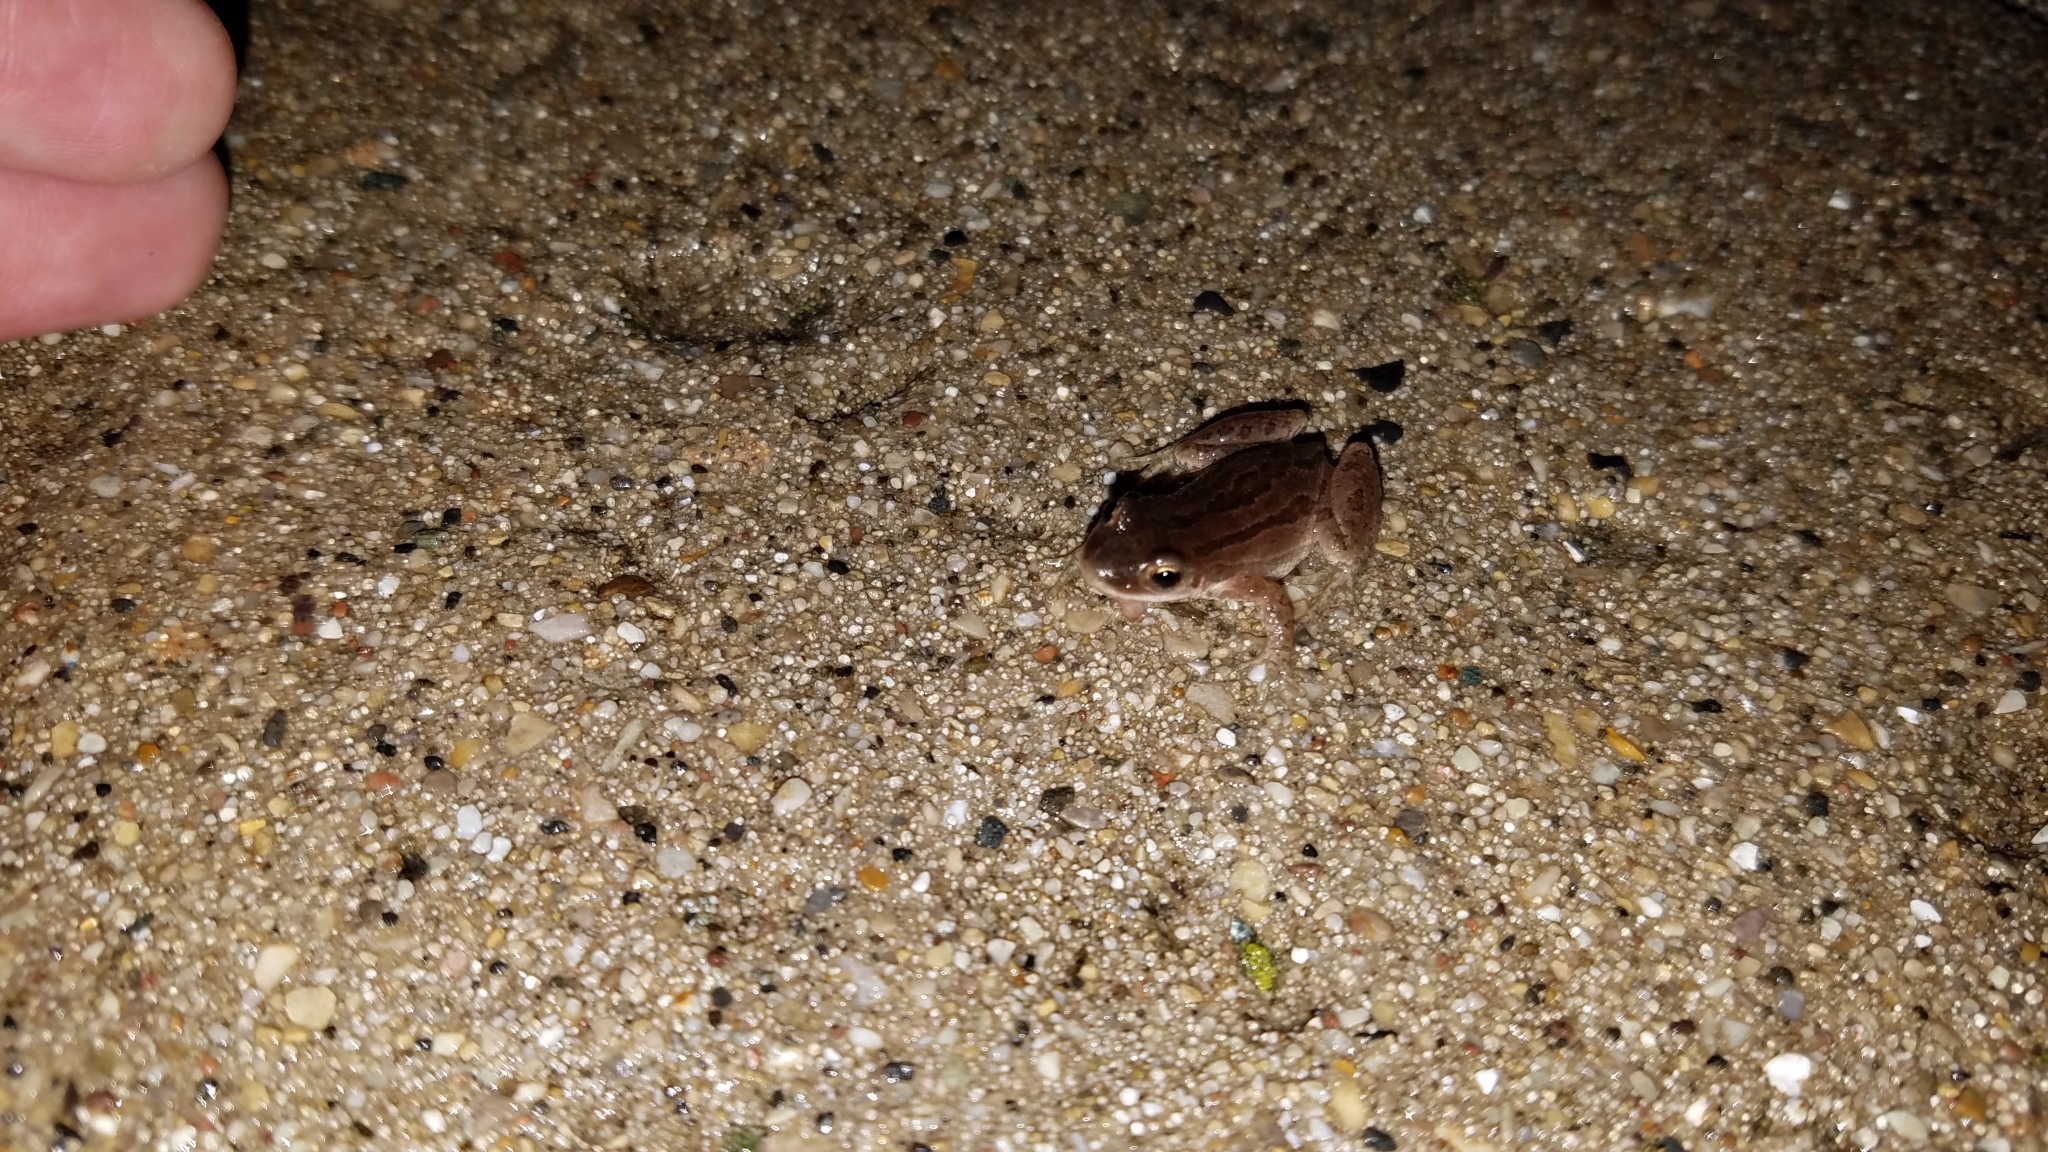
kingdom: Animalia
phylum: Chordata
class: Amphibia
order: Anura
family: Hylidae
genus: Pseudacris
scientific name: Pseudacris maculata
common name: Boreal chorus frog
